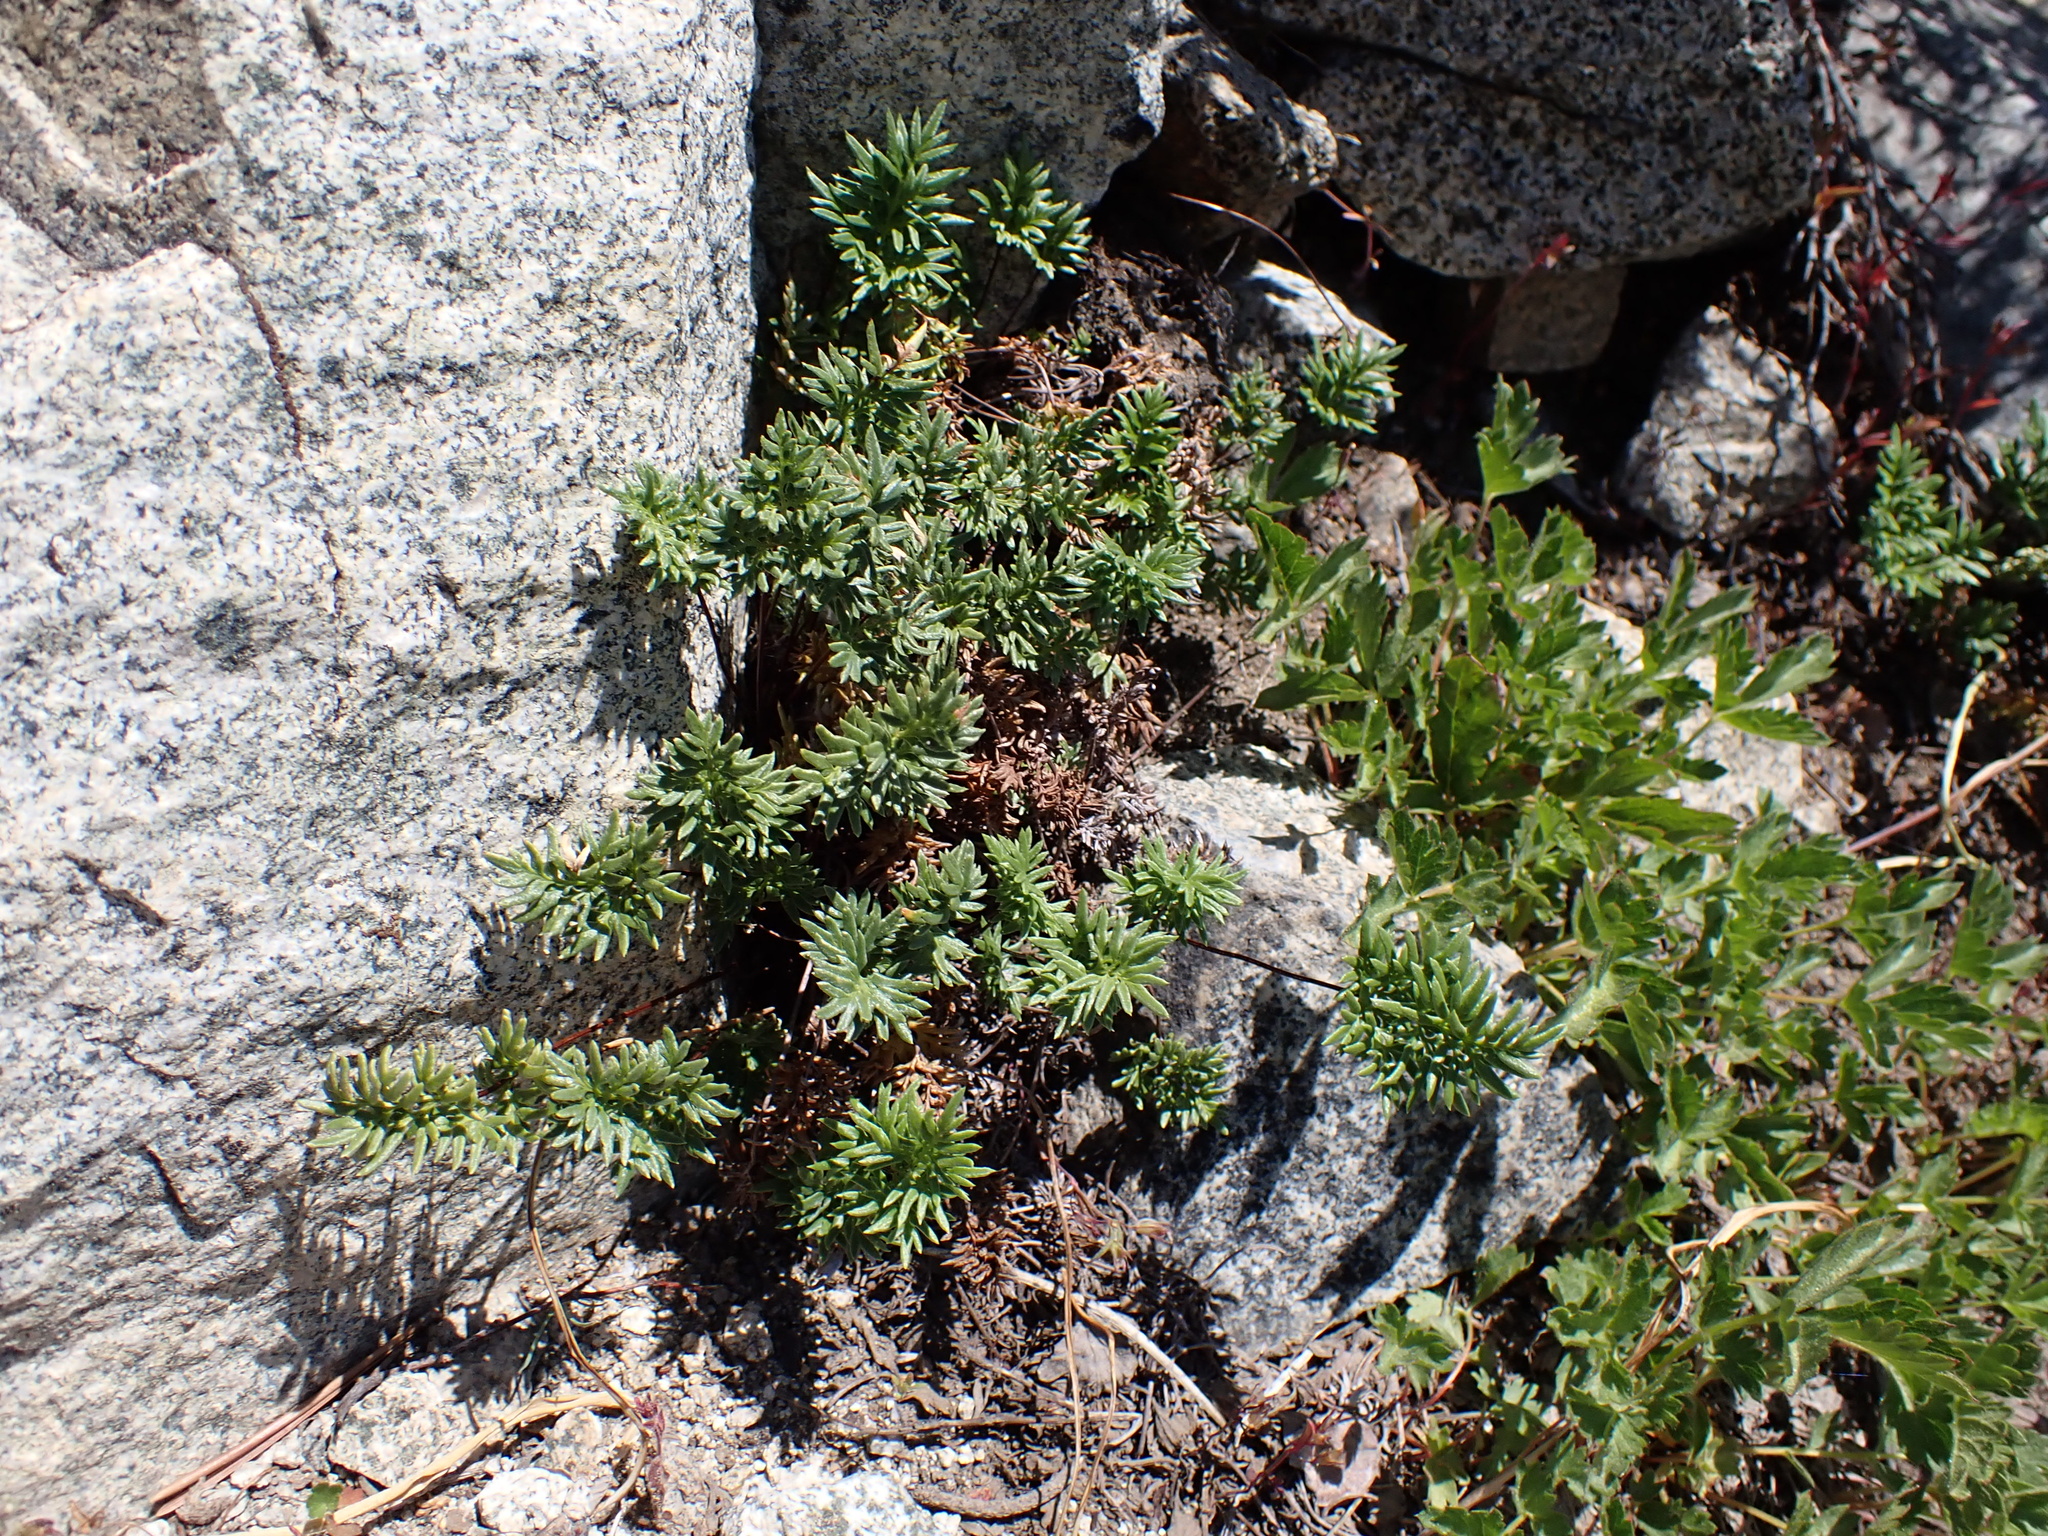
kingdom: Plantae
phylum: Tracheophyta
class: Polypodiopsida
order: Polypodiales
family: Pteridaceae
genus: Aspidotis
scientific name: Aspidotis densa
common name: Indian's dream
